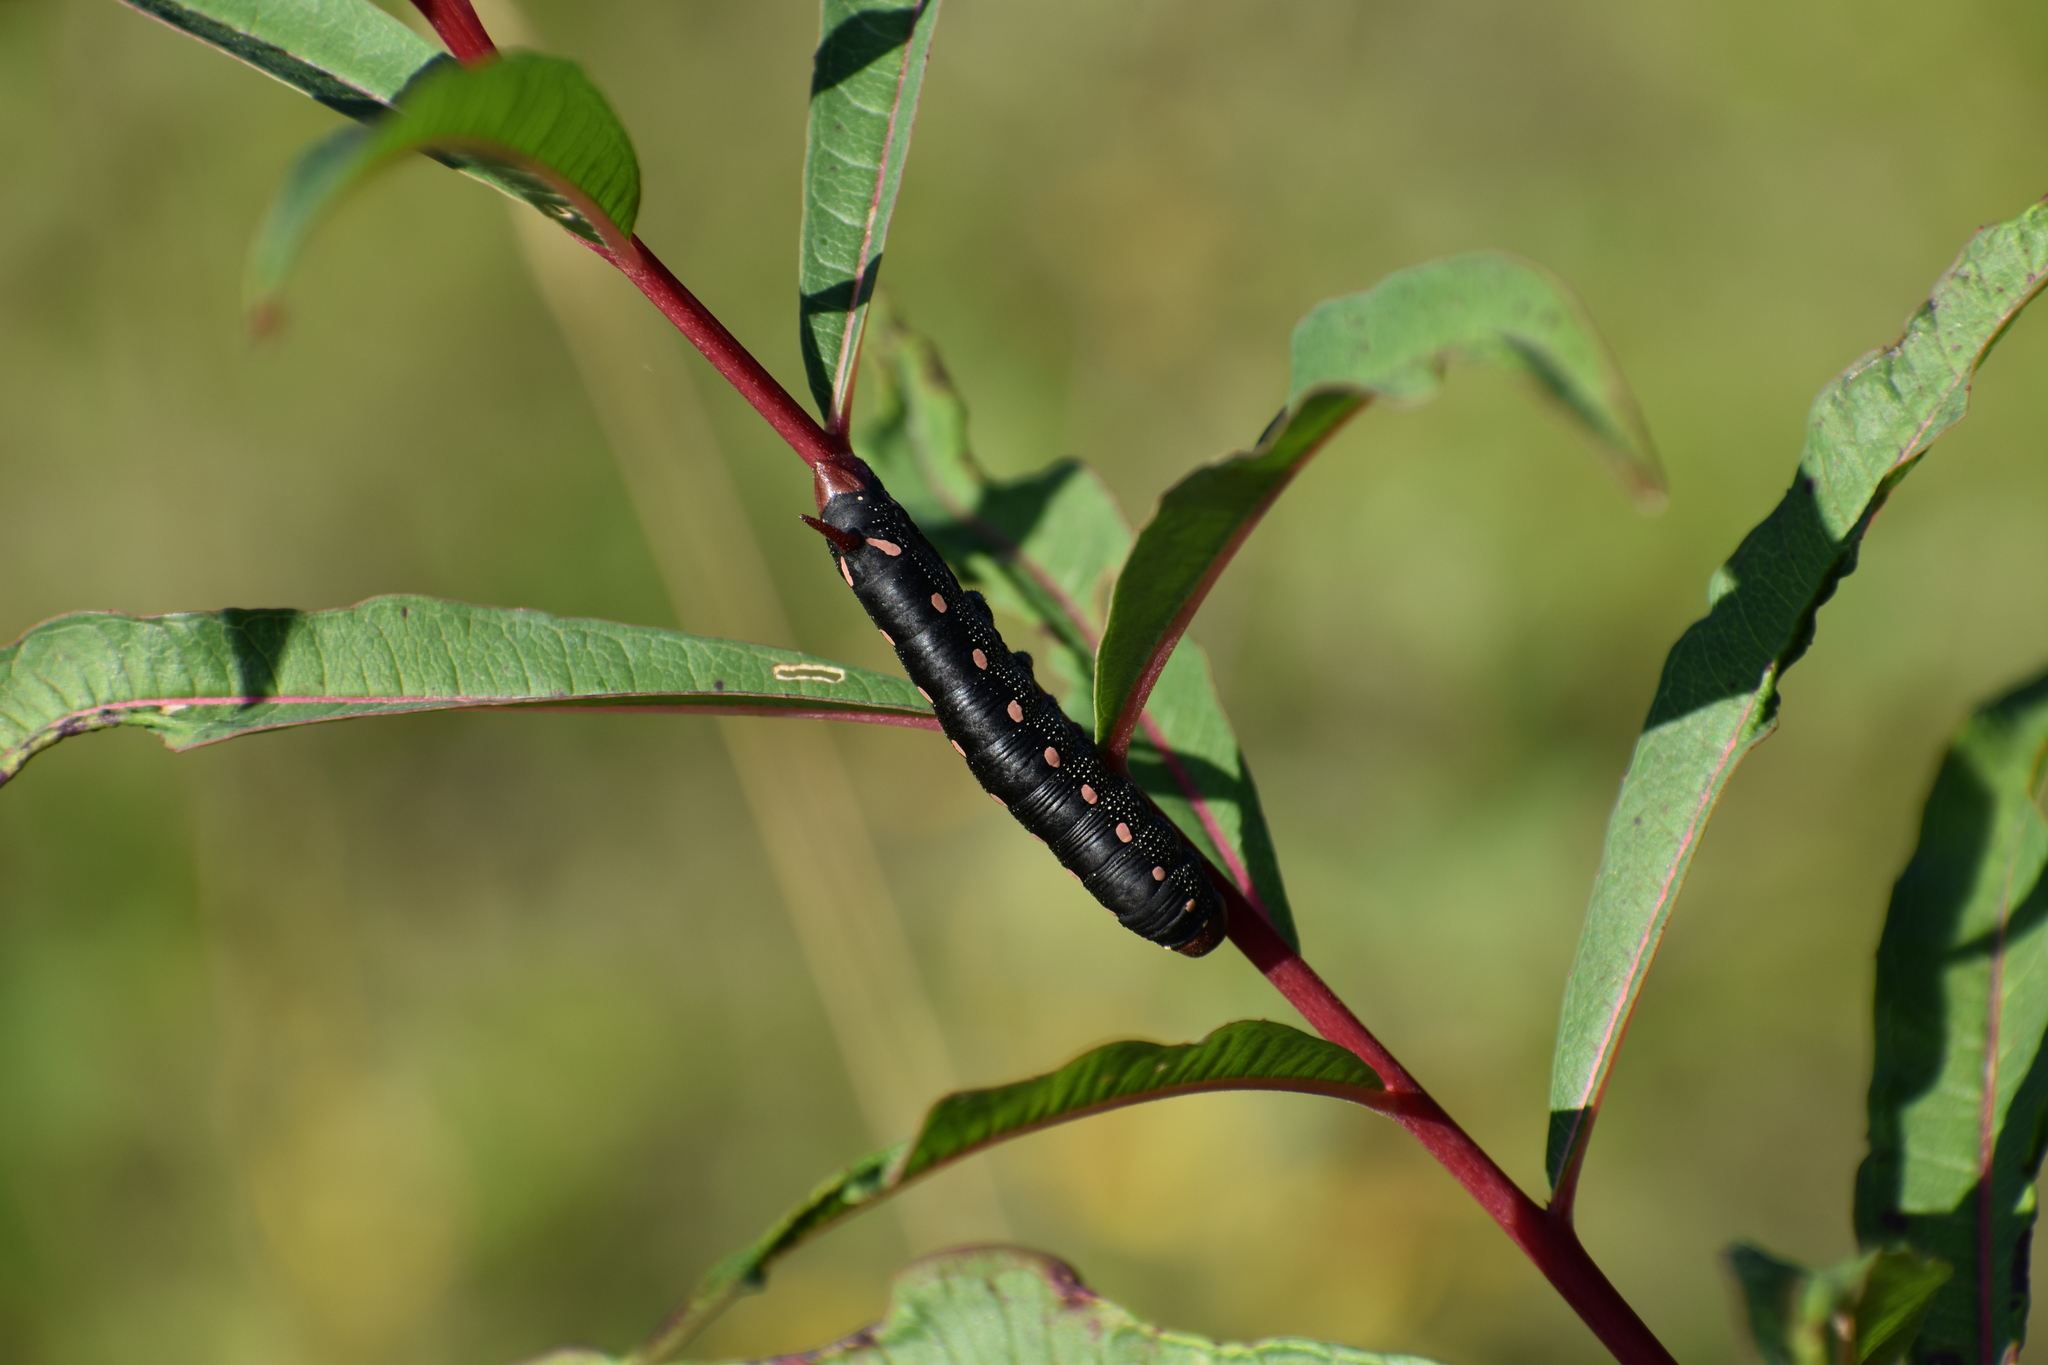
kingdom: Animalia
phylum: Arthropoda
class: Insecta
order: Lepidoptera
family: Sphingidae
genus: Hyles
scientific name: Hyles gallii
